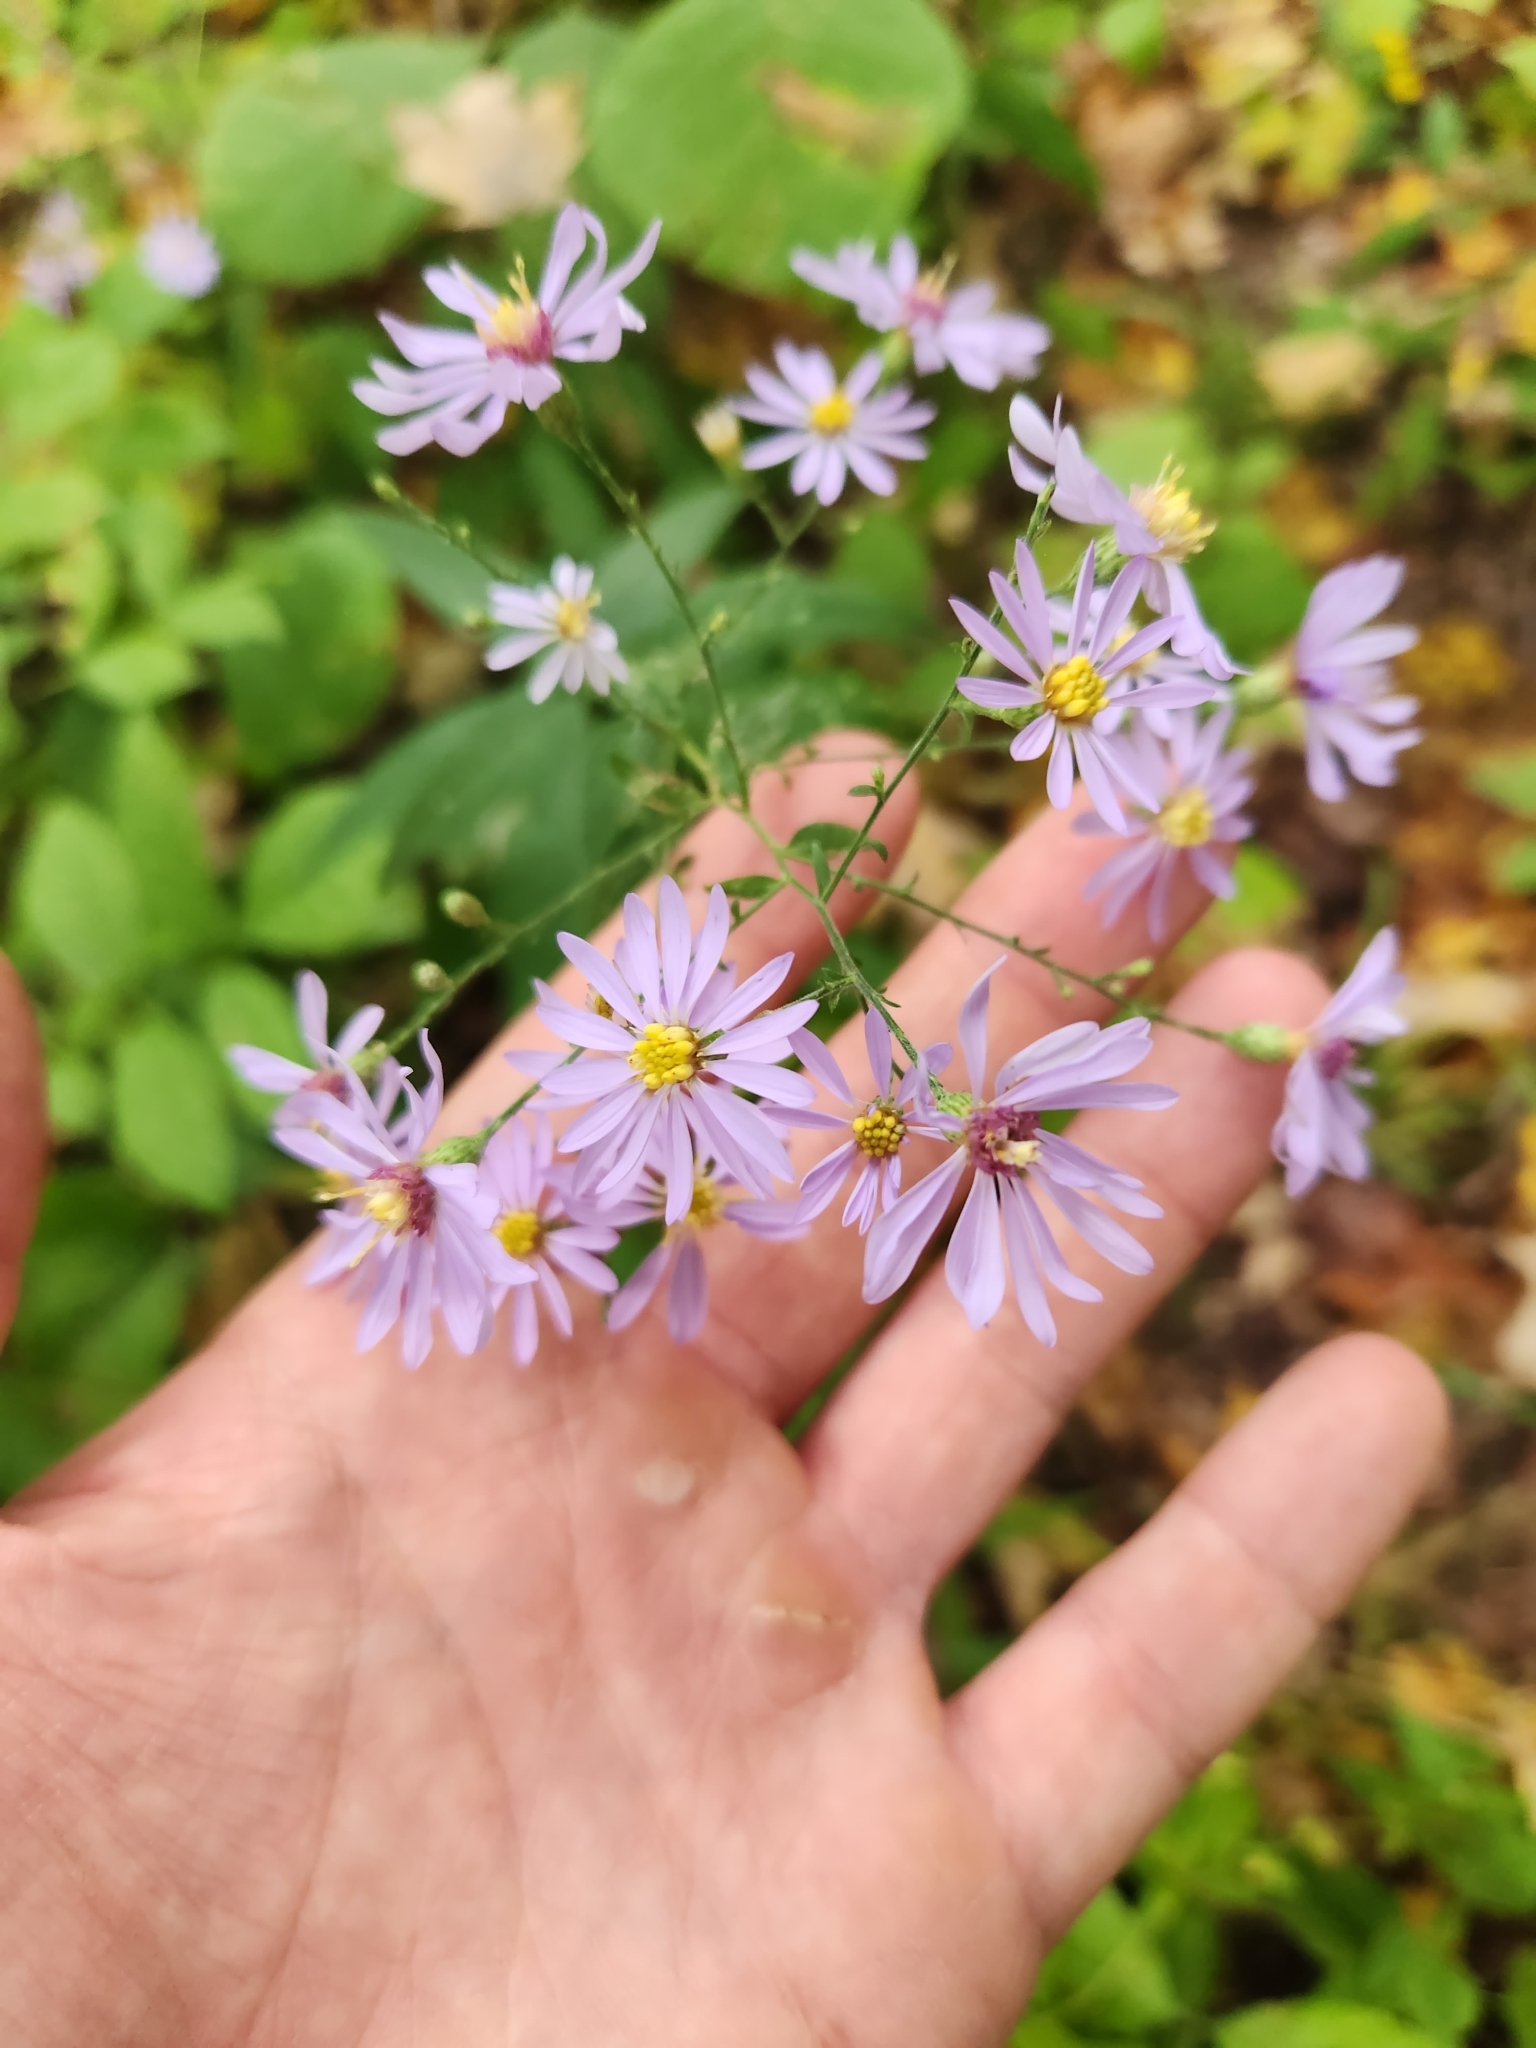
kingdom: Plantae
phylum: Tracheophyta
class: Magnoliopsida
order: Asterales
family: Asteraceae
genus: Symphyotrichum
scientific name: Symphyotrichum shortii
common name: Short's aster
